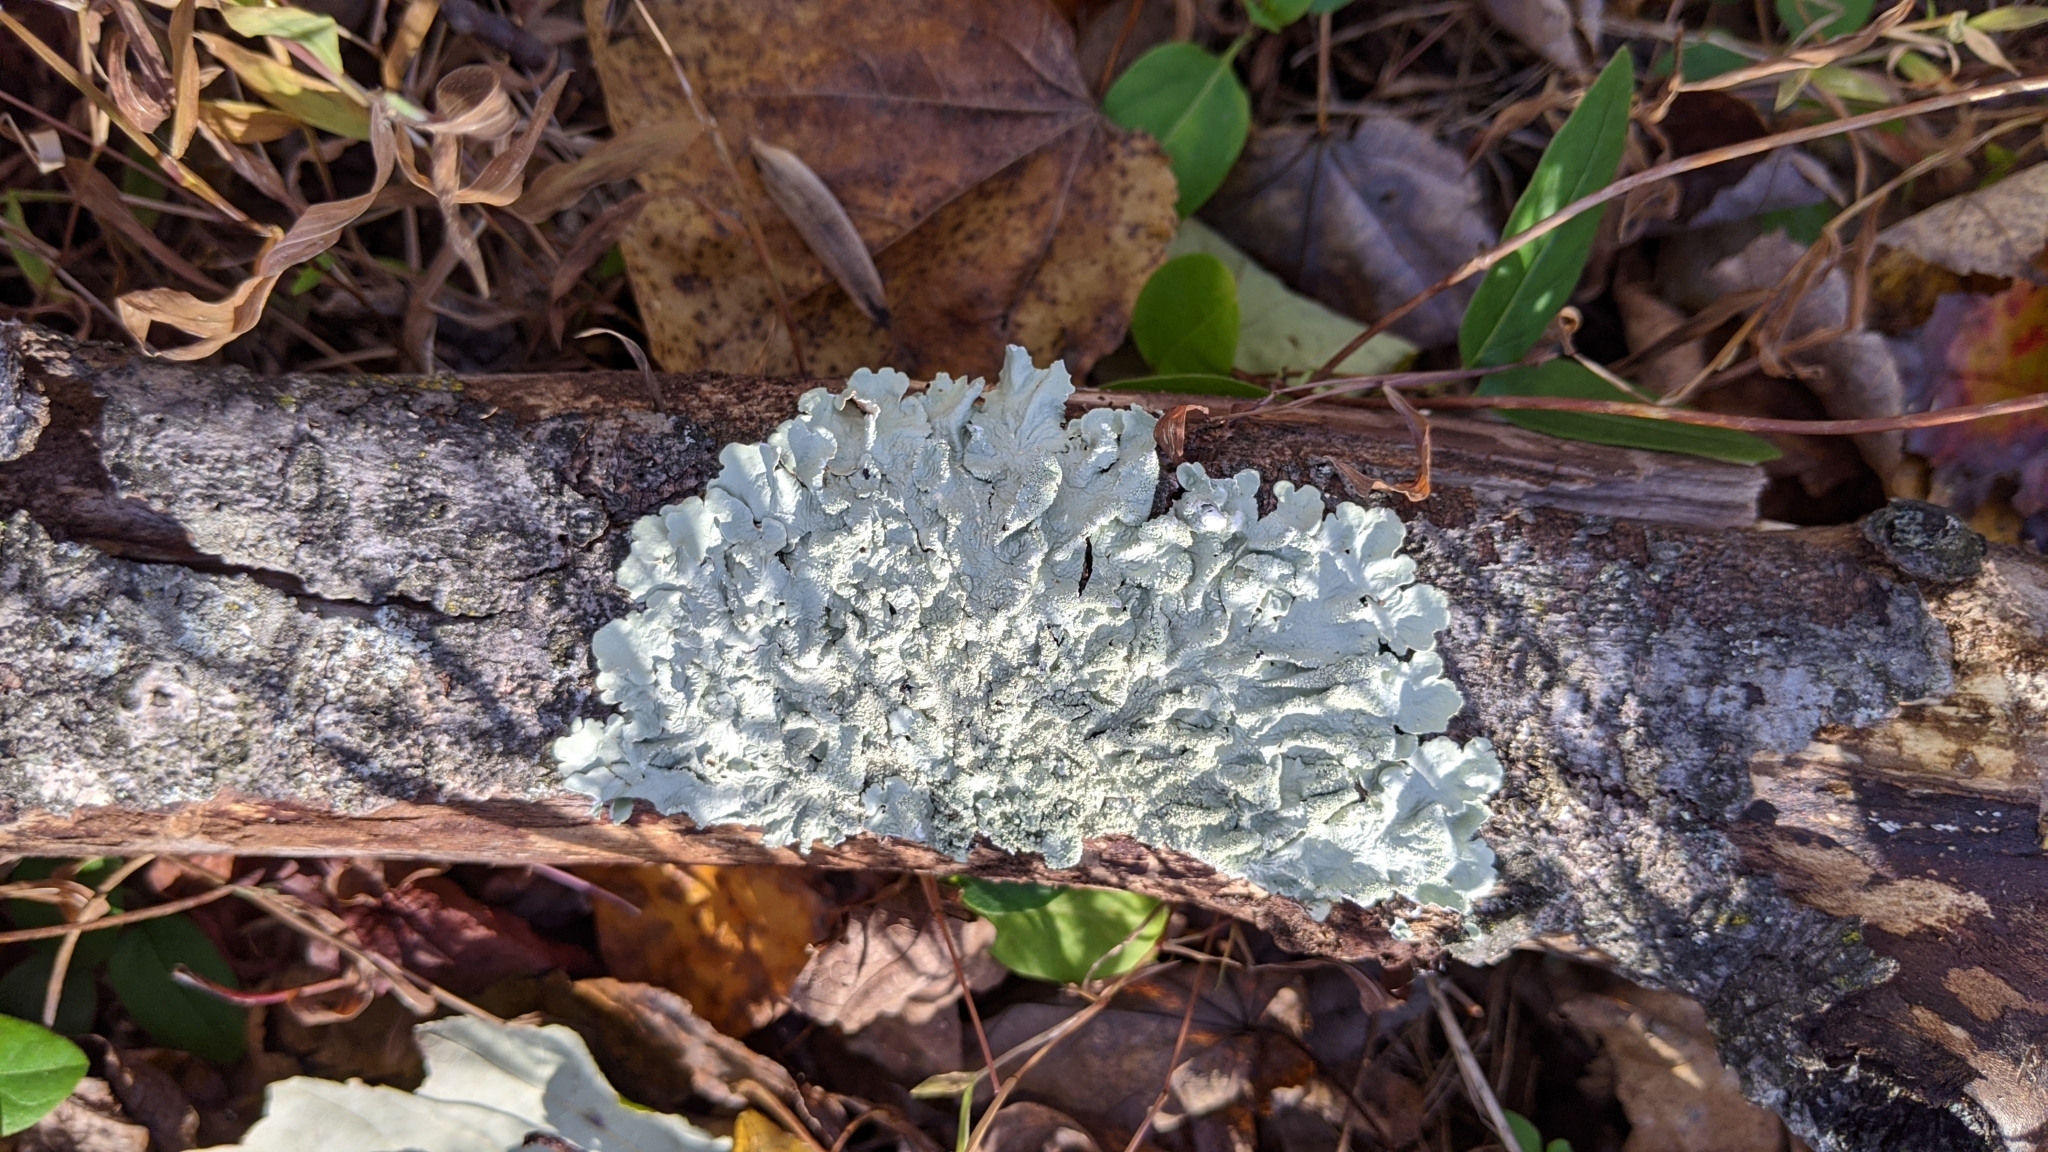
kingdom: Fungi
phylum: Ascomycota
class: Lecanoromycetes
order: Lecanorales
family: Parmeliaceae
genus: Flavoparmelia
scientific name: Flavoparmelia caperata
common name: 40-mile per hour lichen
